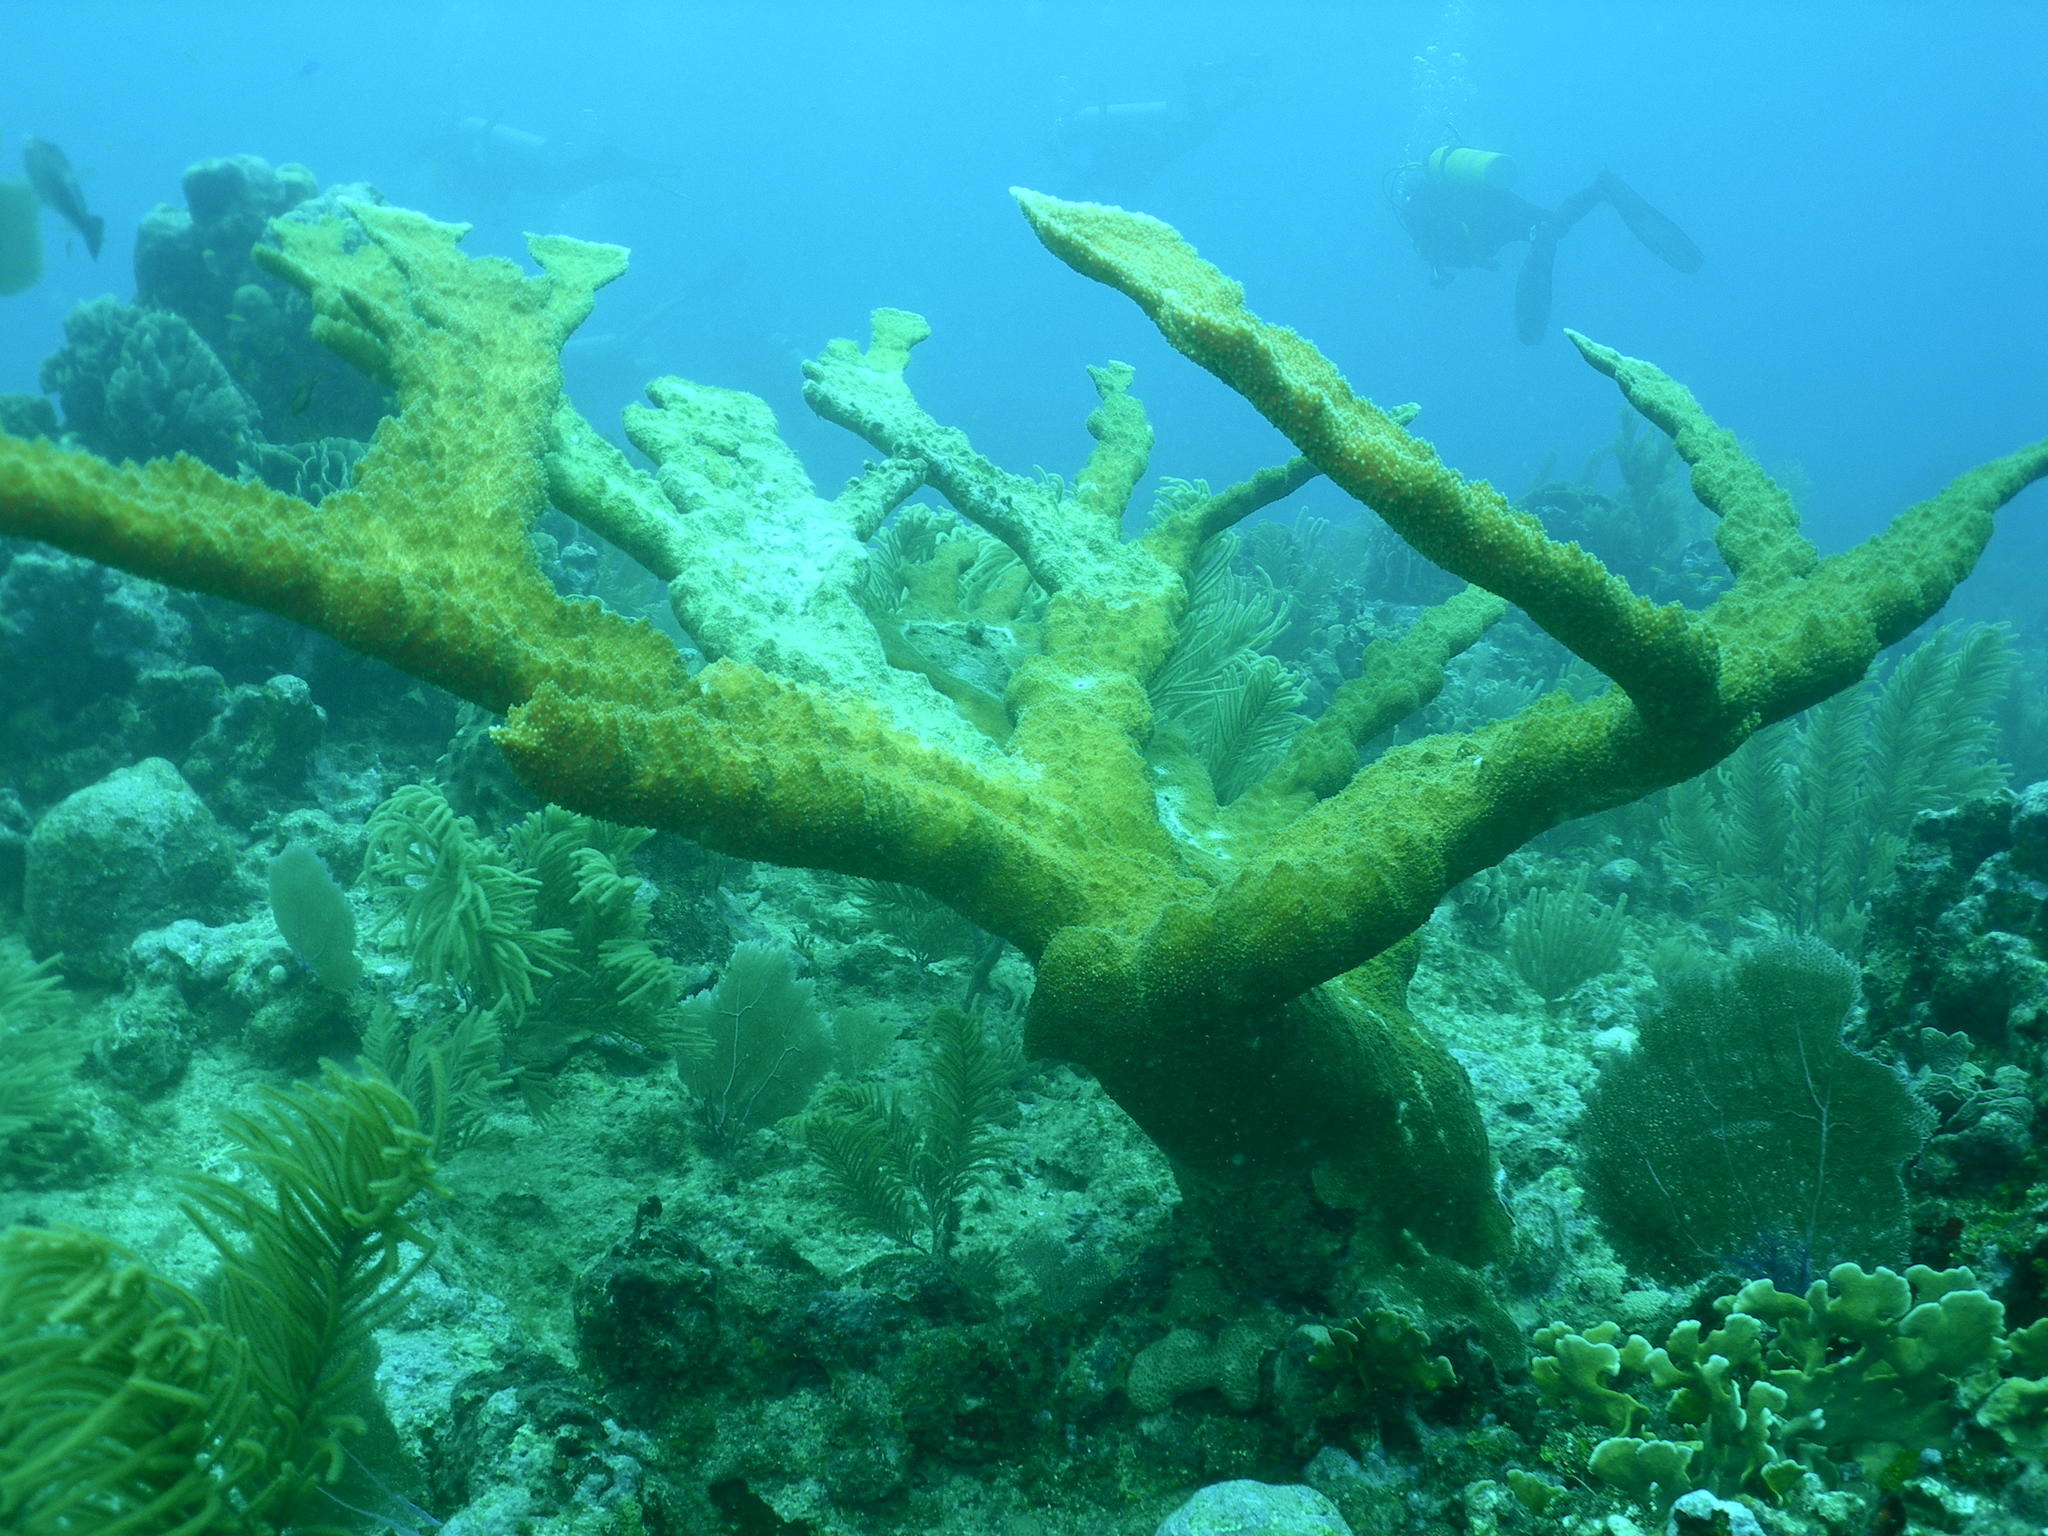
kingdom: Animalia
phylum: Cnidaria
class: Anthozoa
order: Scleractinia
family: Acroporidae
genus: Acropora
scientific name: Acropora palmata
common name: Elkhorn coral
